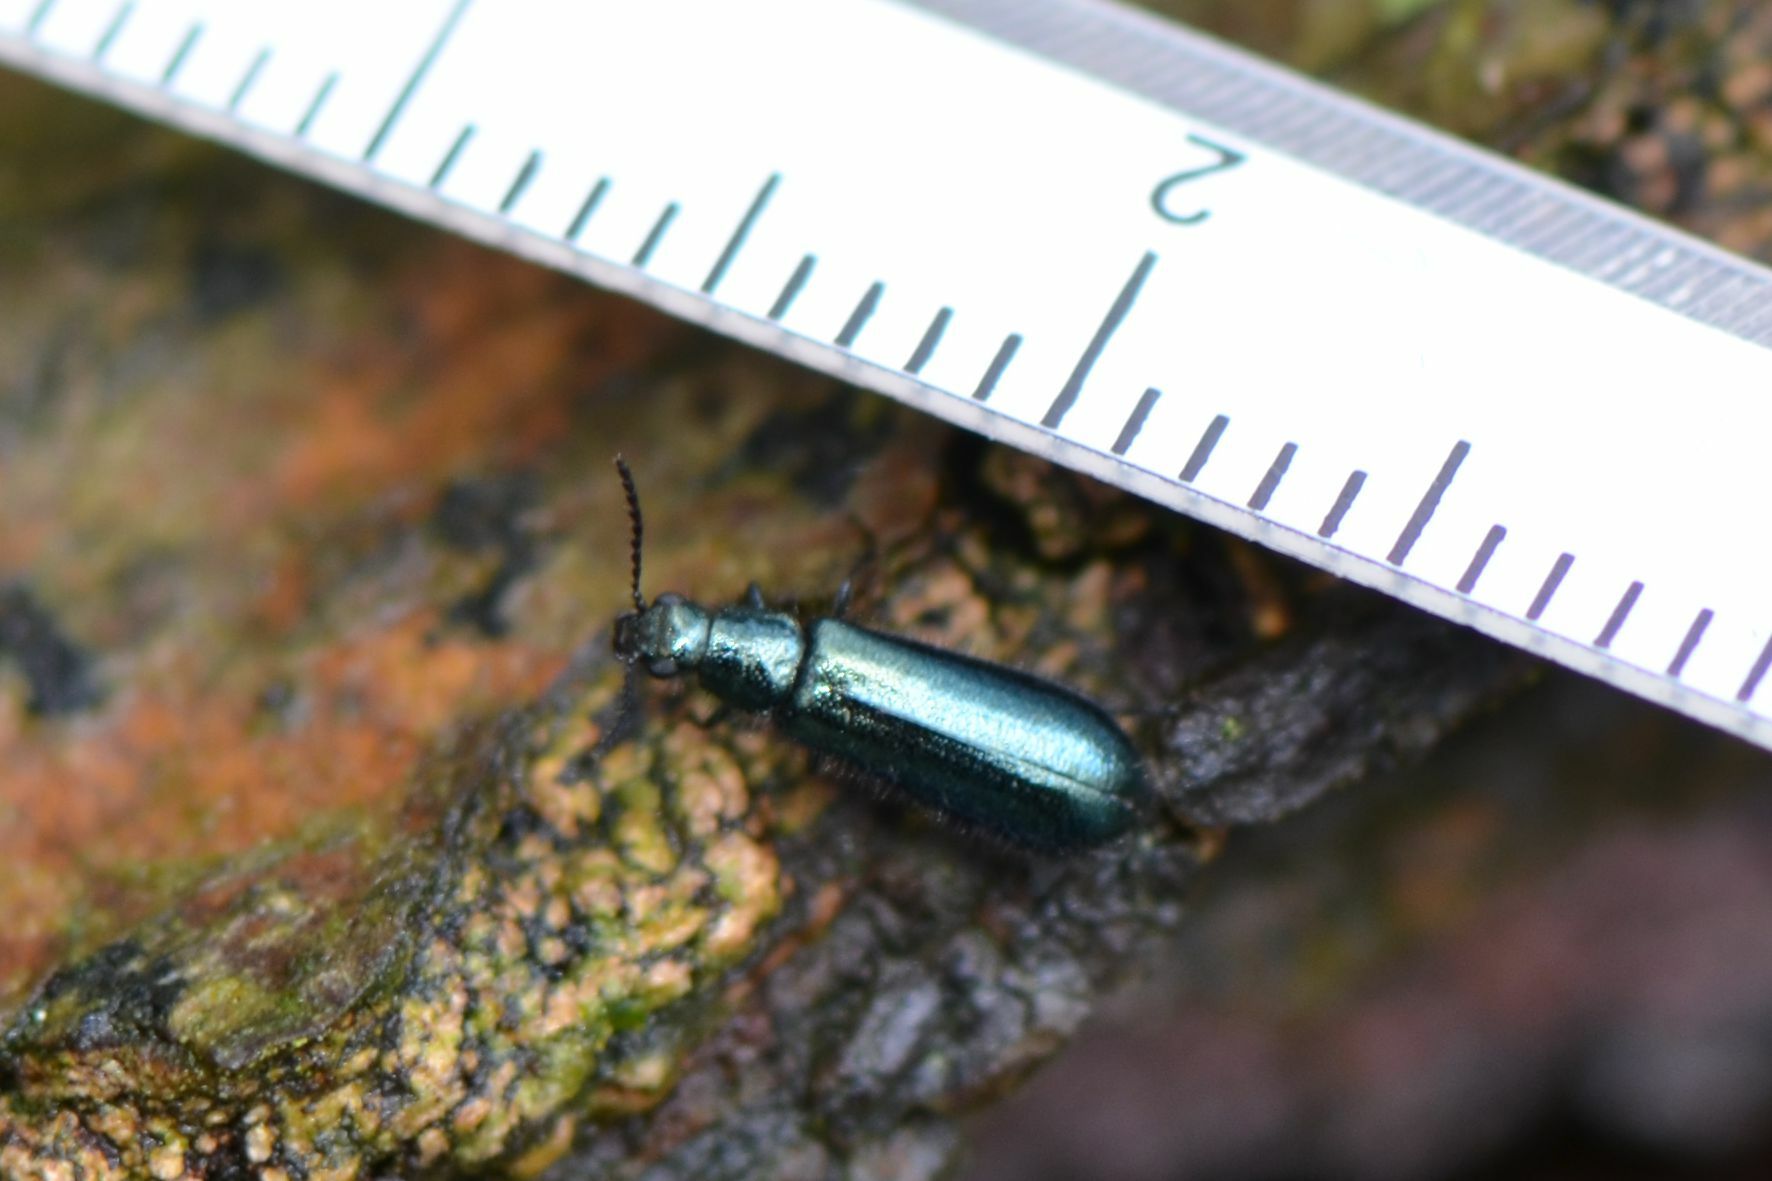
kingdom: Animalia
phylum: Arthropoda
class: Insecta
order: Coleoptera
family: Melyridae
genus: Dasytes
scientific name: Dasytes caeruleus
